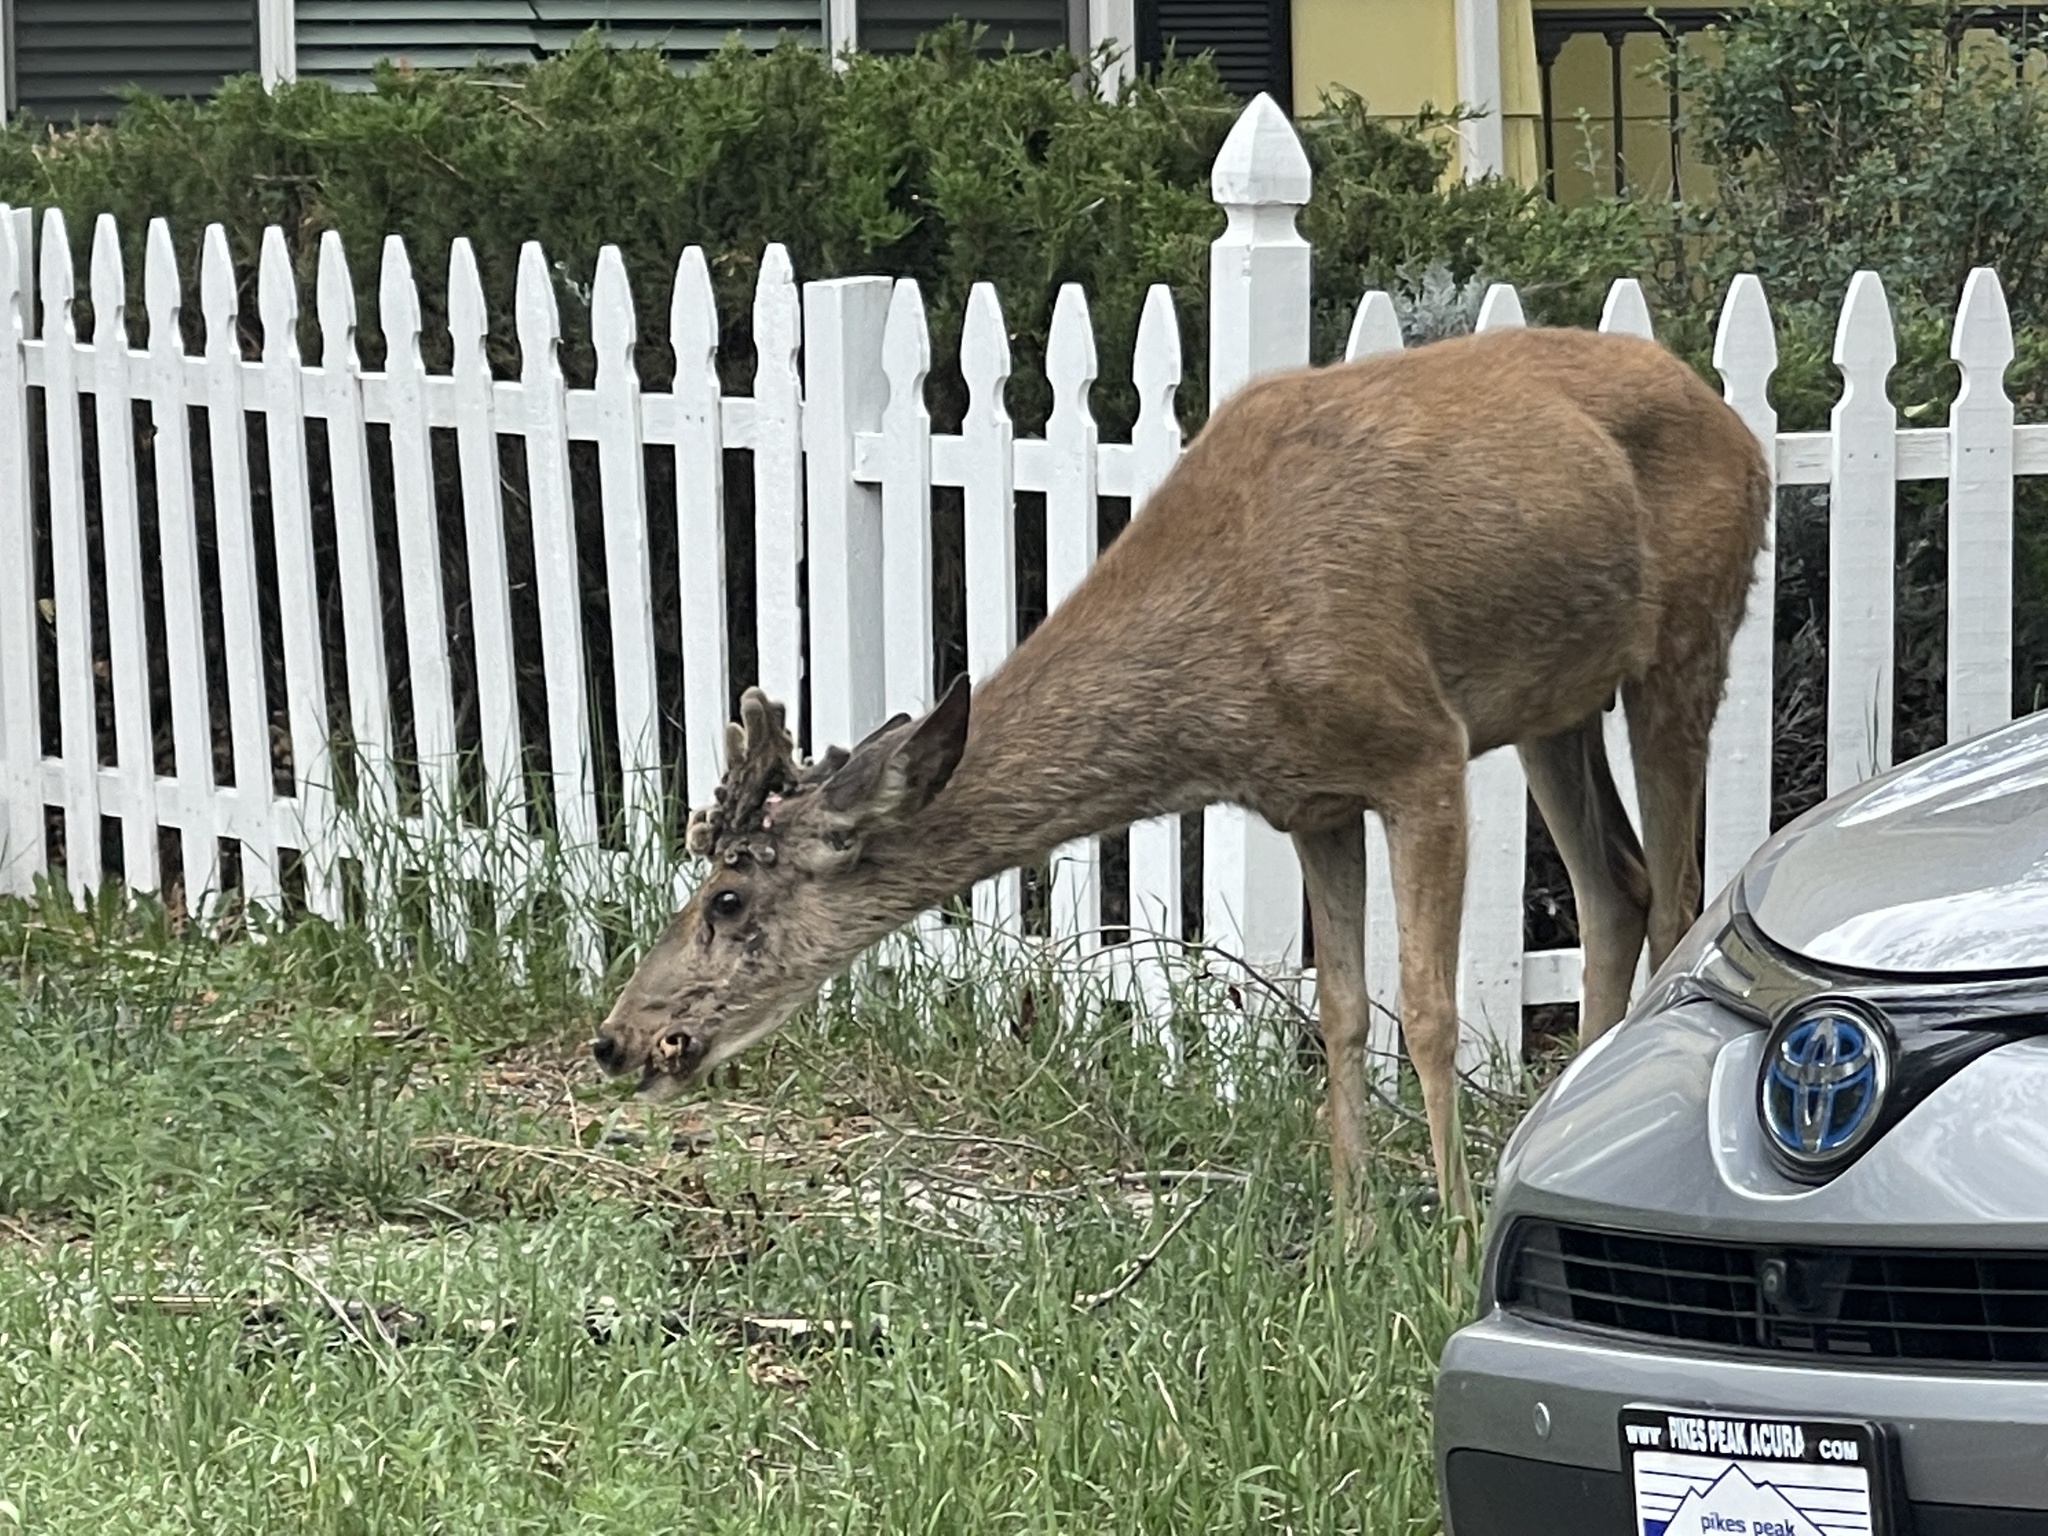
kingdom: Animalia
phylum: Chordata
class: Mammalia
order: Artiodactyla
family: Cervidae
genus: Odocoileus
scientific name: Odocoileus hemionus
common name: Mule deer
